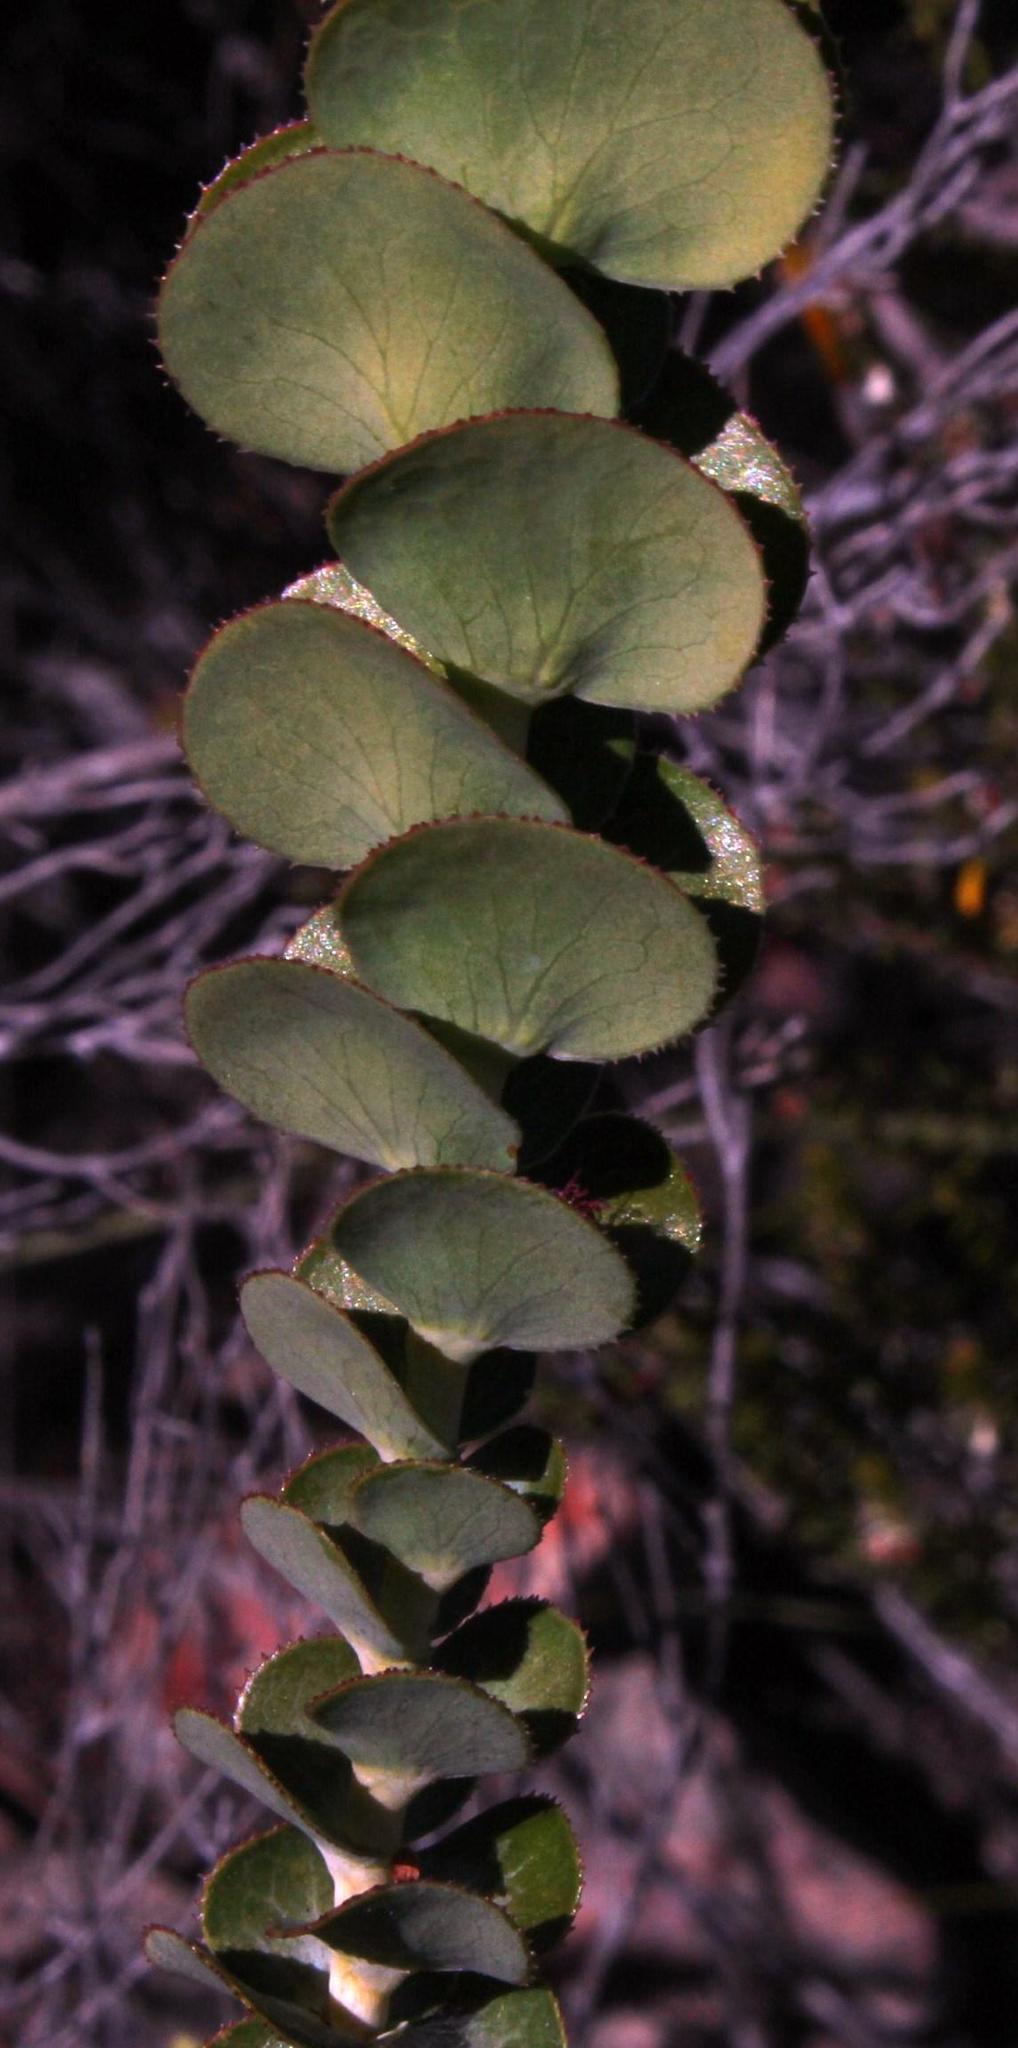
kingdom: Plantae
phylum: Tracheophyta
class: Magnoliopsida
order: Rosales
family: Rosaceae
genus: Cliffortia
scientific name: Cliffortia crenata
